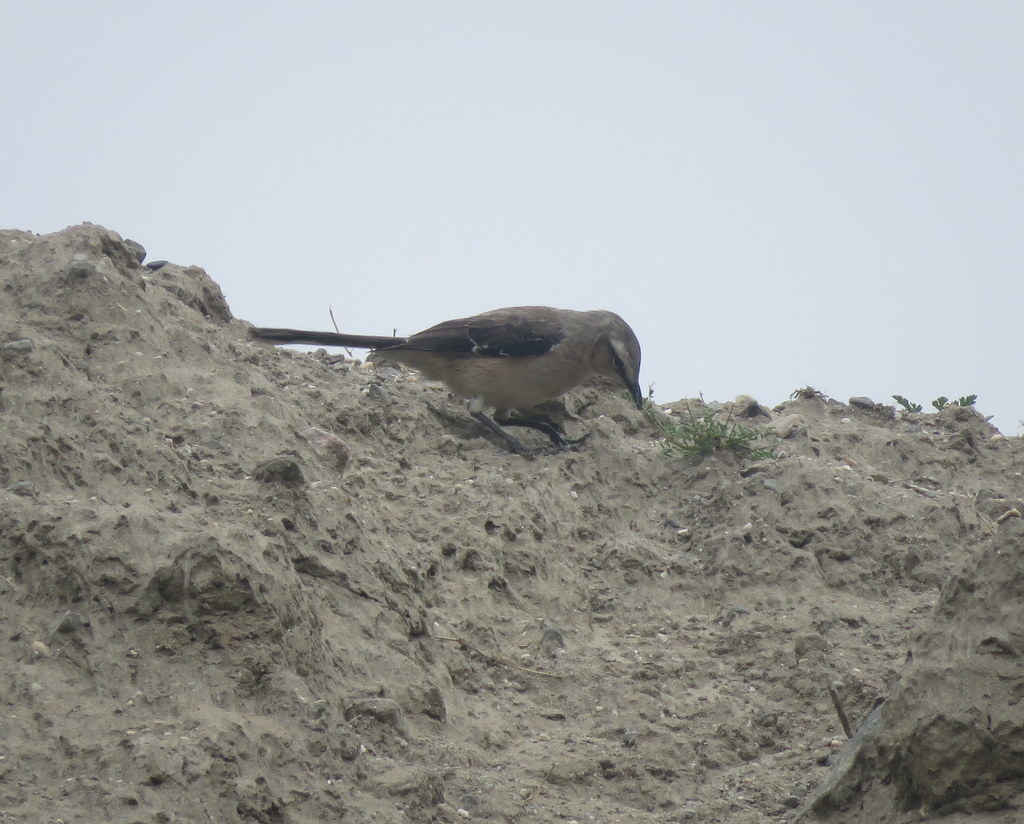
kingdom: Animalia
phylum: Chordata
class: Aves
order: Passeriformes
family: Mimidae
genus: Mimus
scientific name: Mimus patagonicus
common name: Patagonian mockingbird
